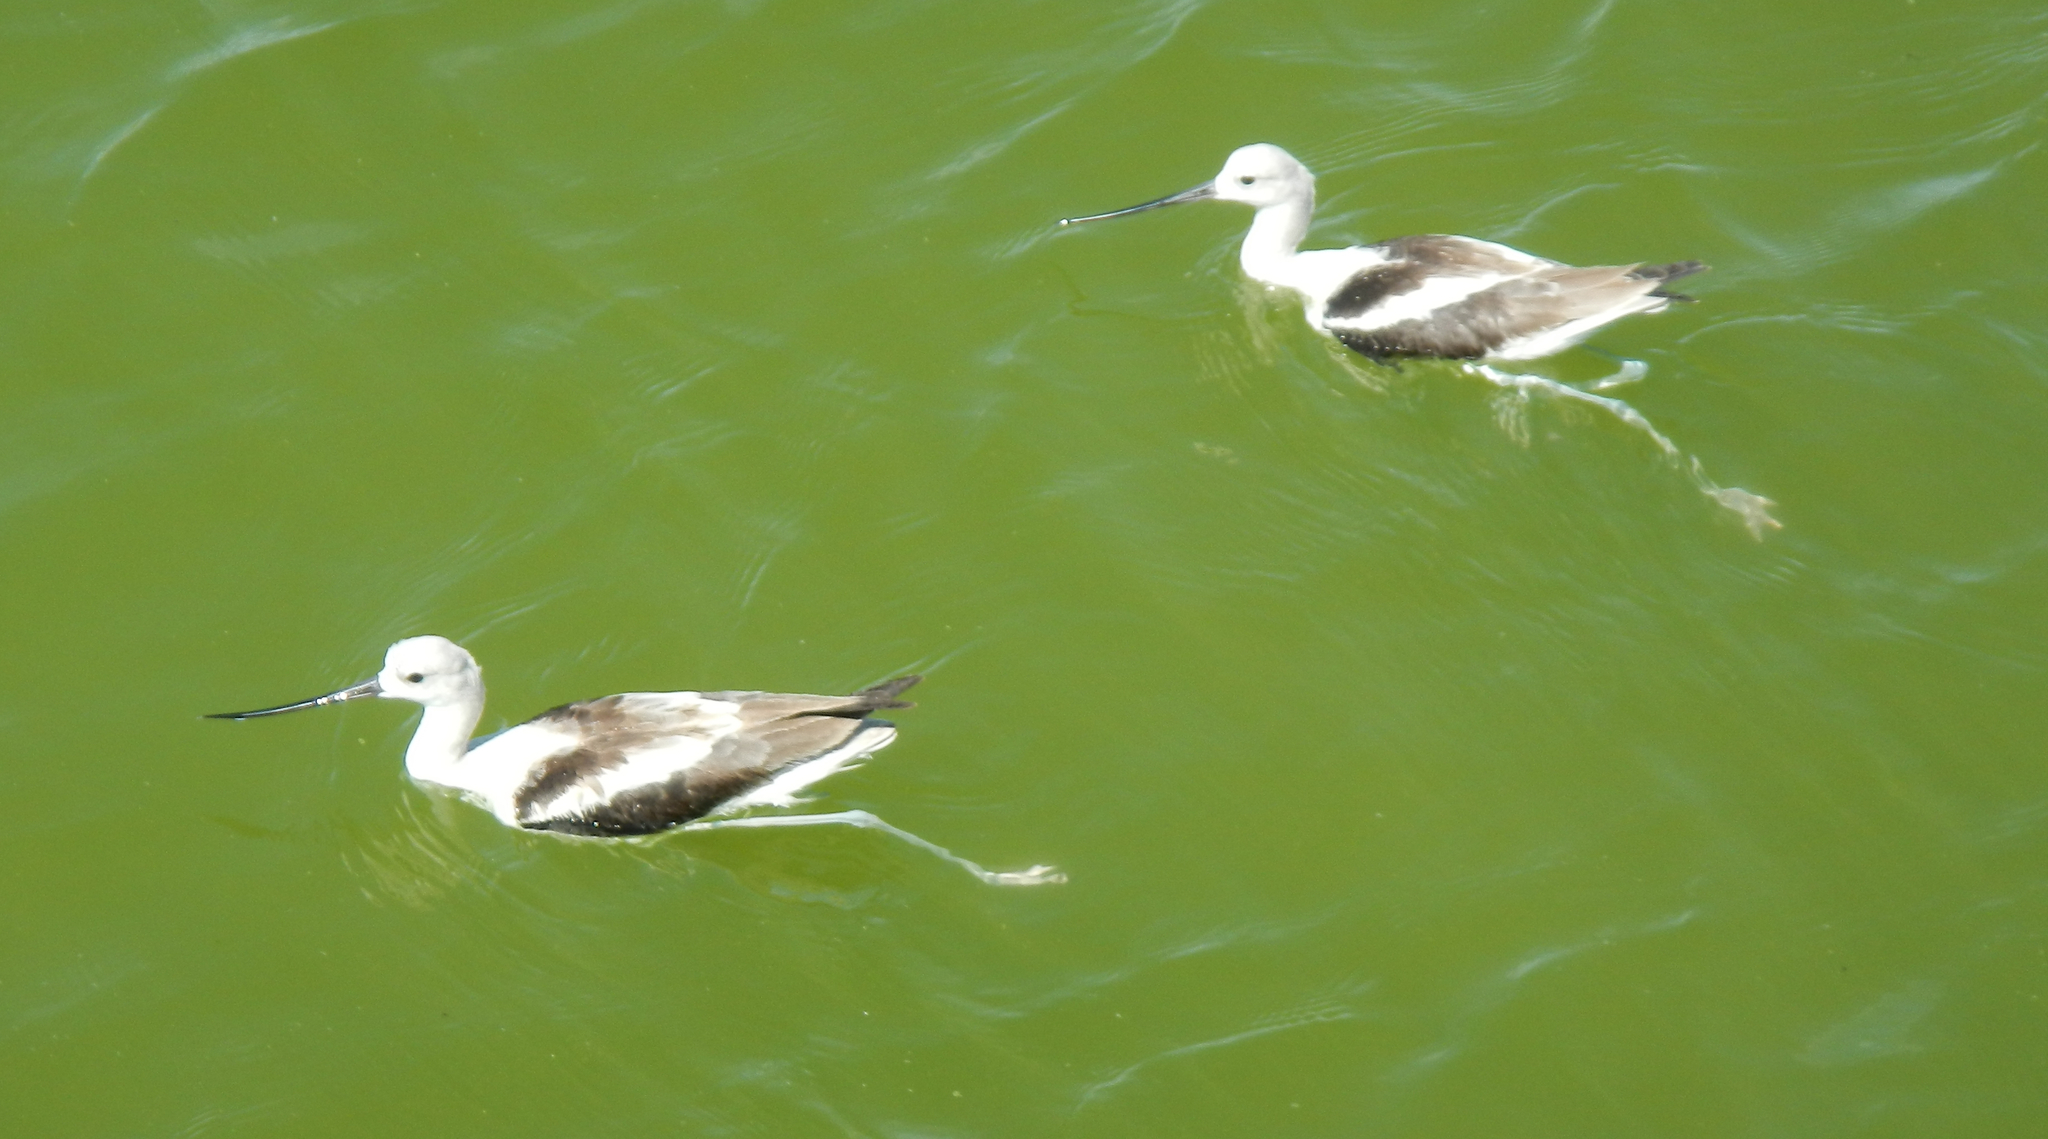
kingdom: Animalia
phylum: Chordata
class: Aves
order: Charadriiformes
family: Recurvirostridae
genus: Recurvirostra
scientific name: Recurvirostra americana
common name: American avocet
